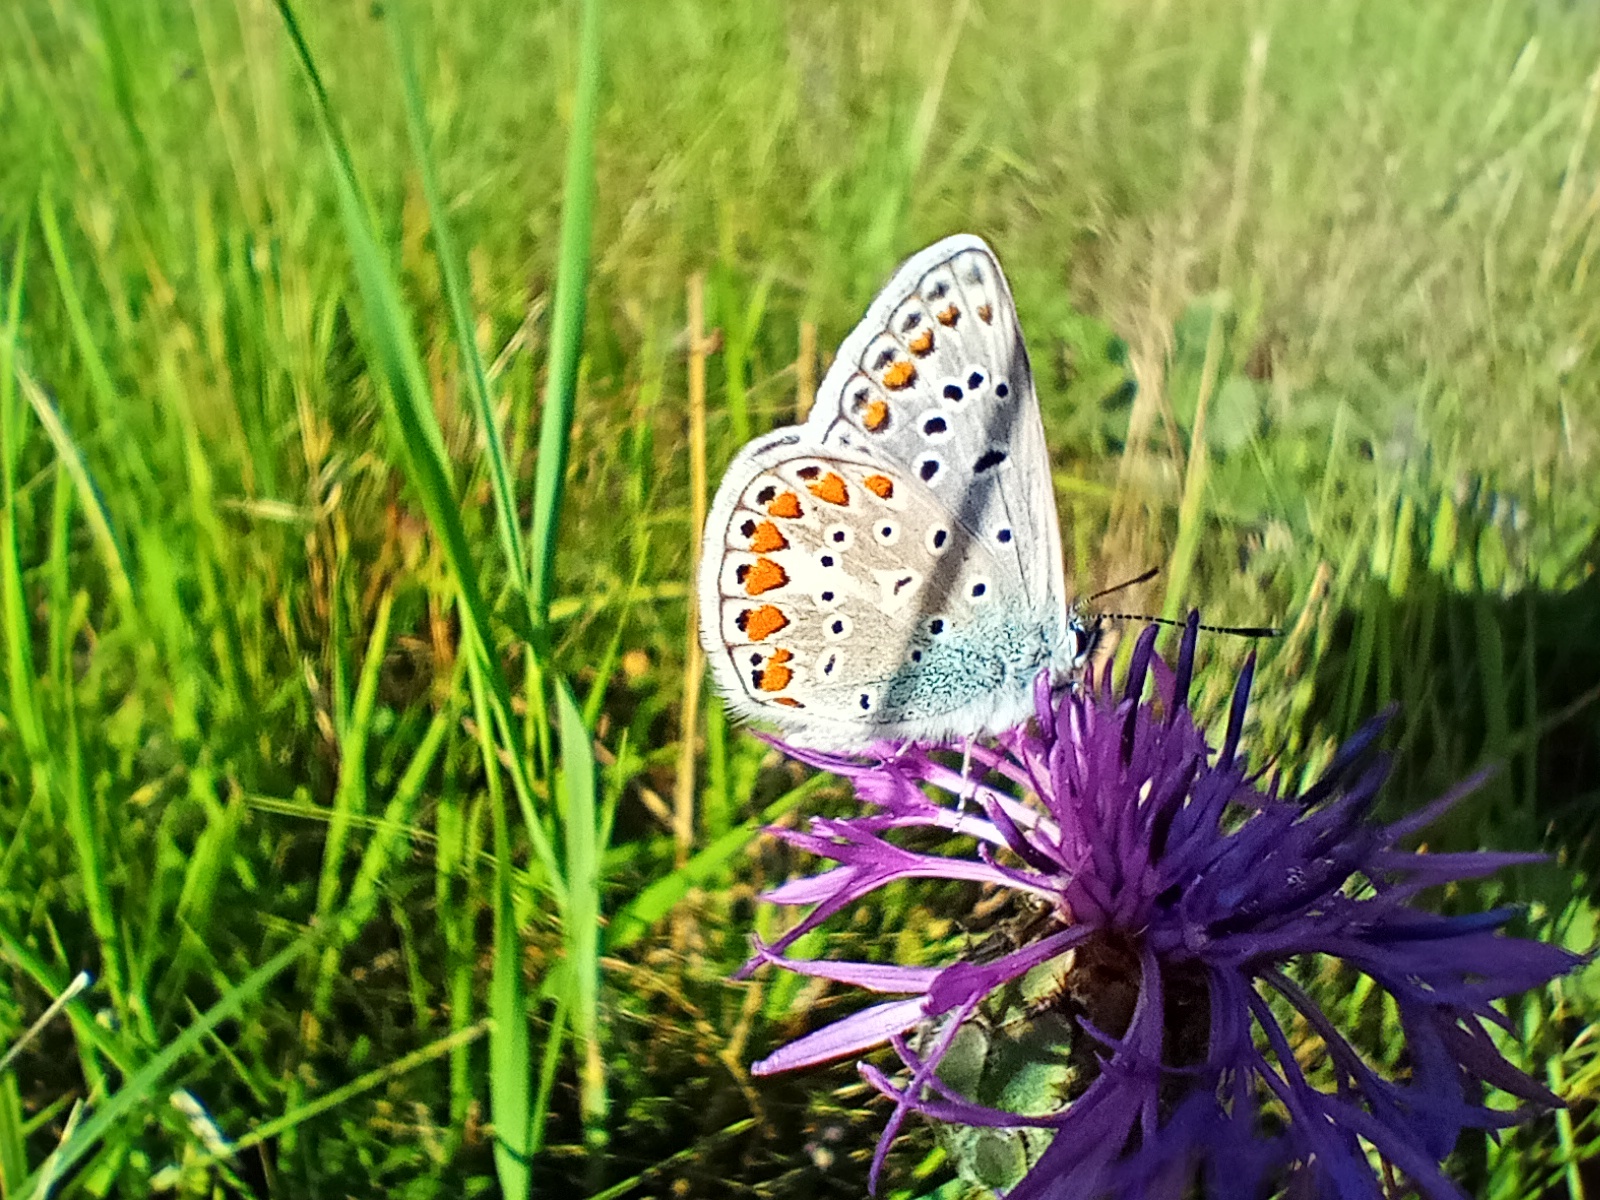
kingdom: Animalia
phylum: Arthropoda
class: Insecta
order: Lepidoptera
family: Lycaenidae
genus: Polyommatus
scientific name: Polyommatus icarus
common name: Common blue
